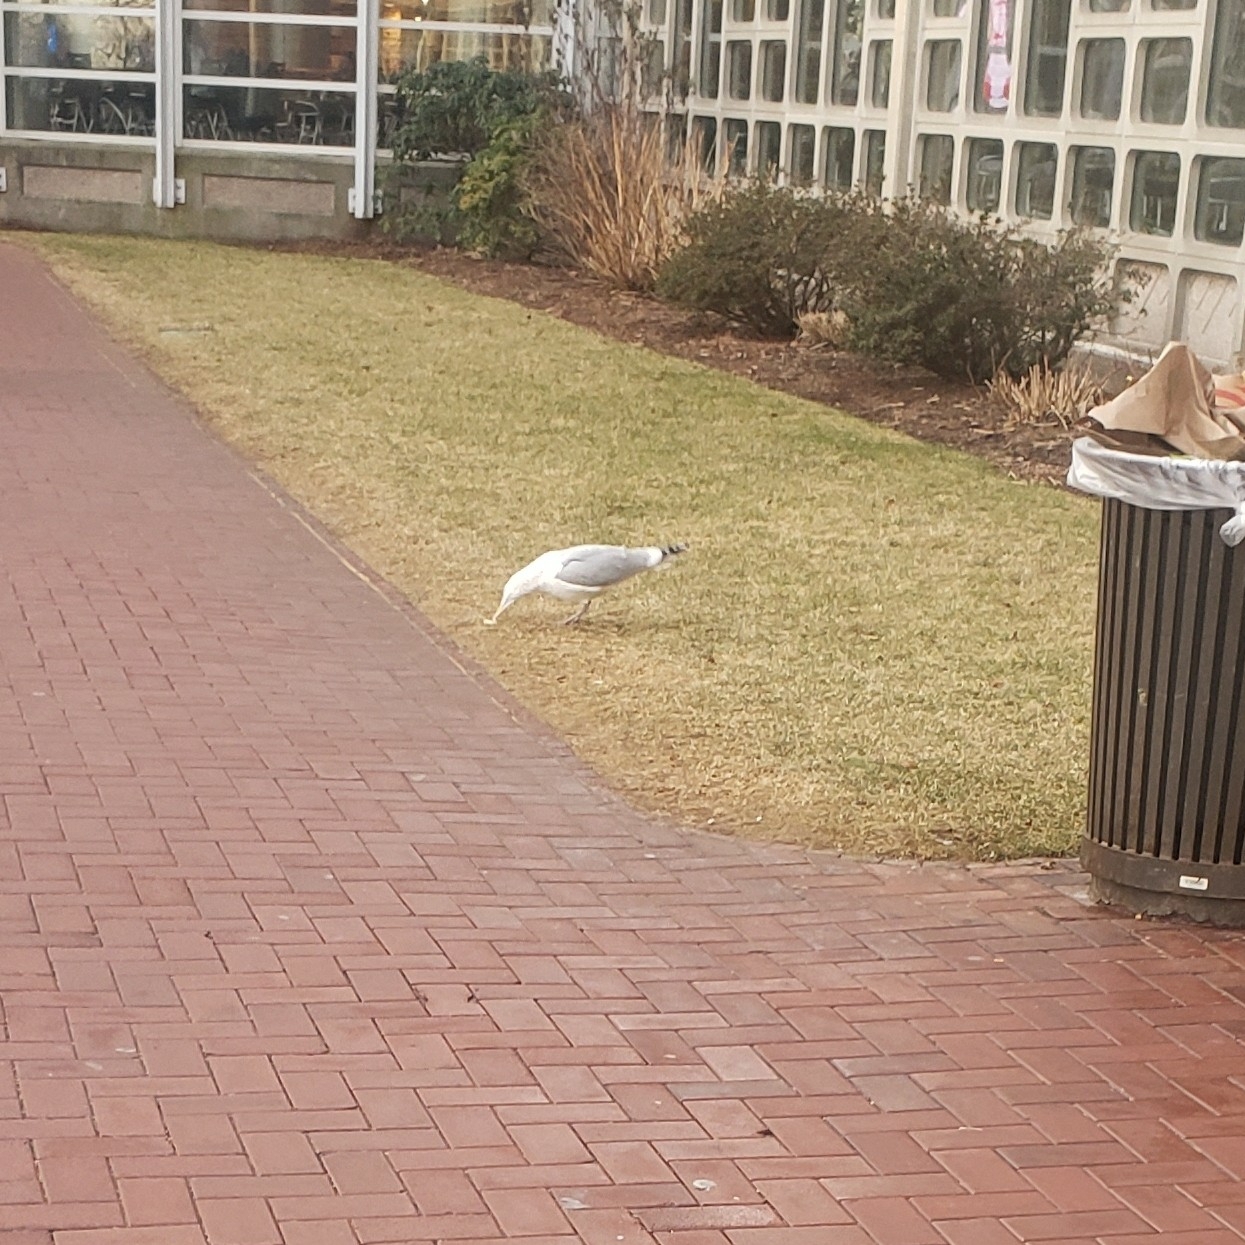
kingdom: Animalia
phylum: Chordata
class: Aves
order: Charadriiformes
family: Laridae
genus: Larus
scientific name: Larus argentatus
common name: Herring gull
